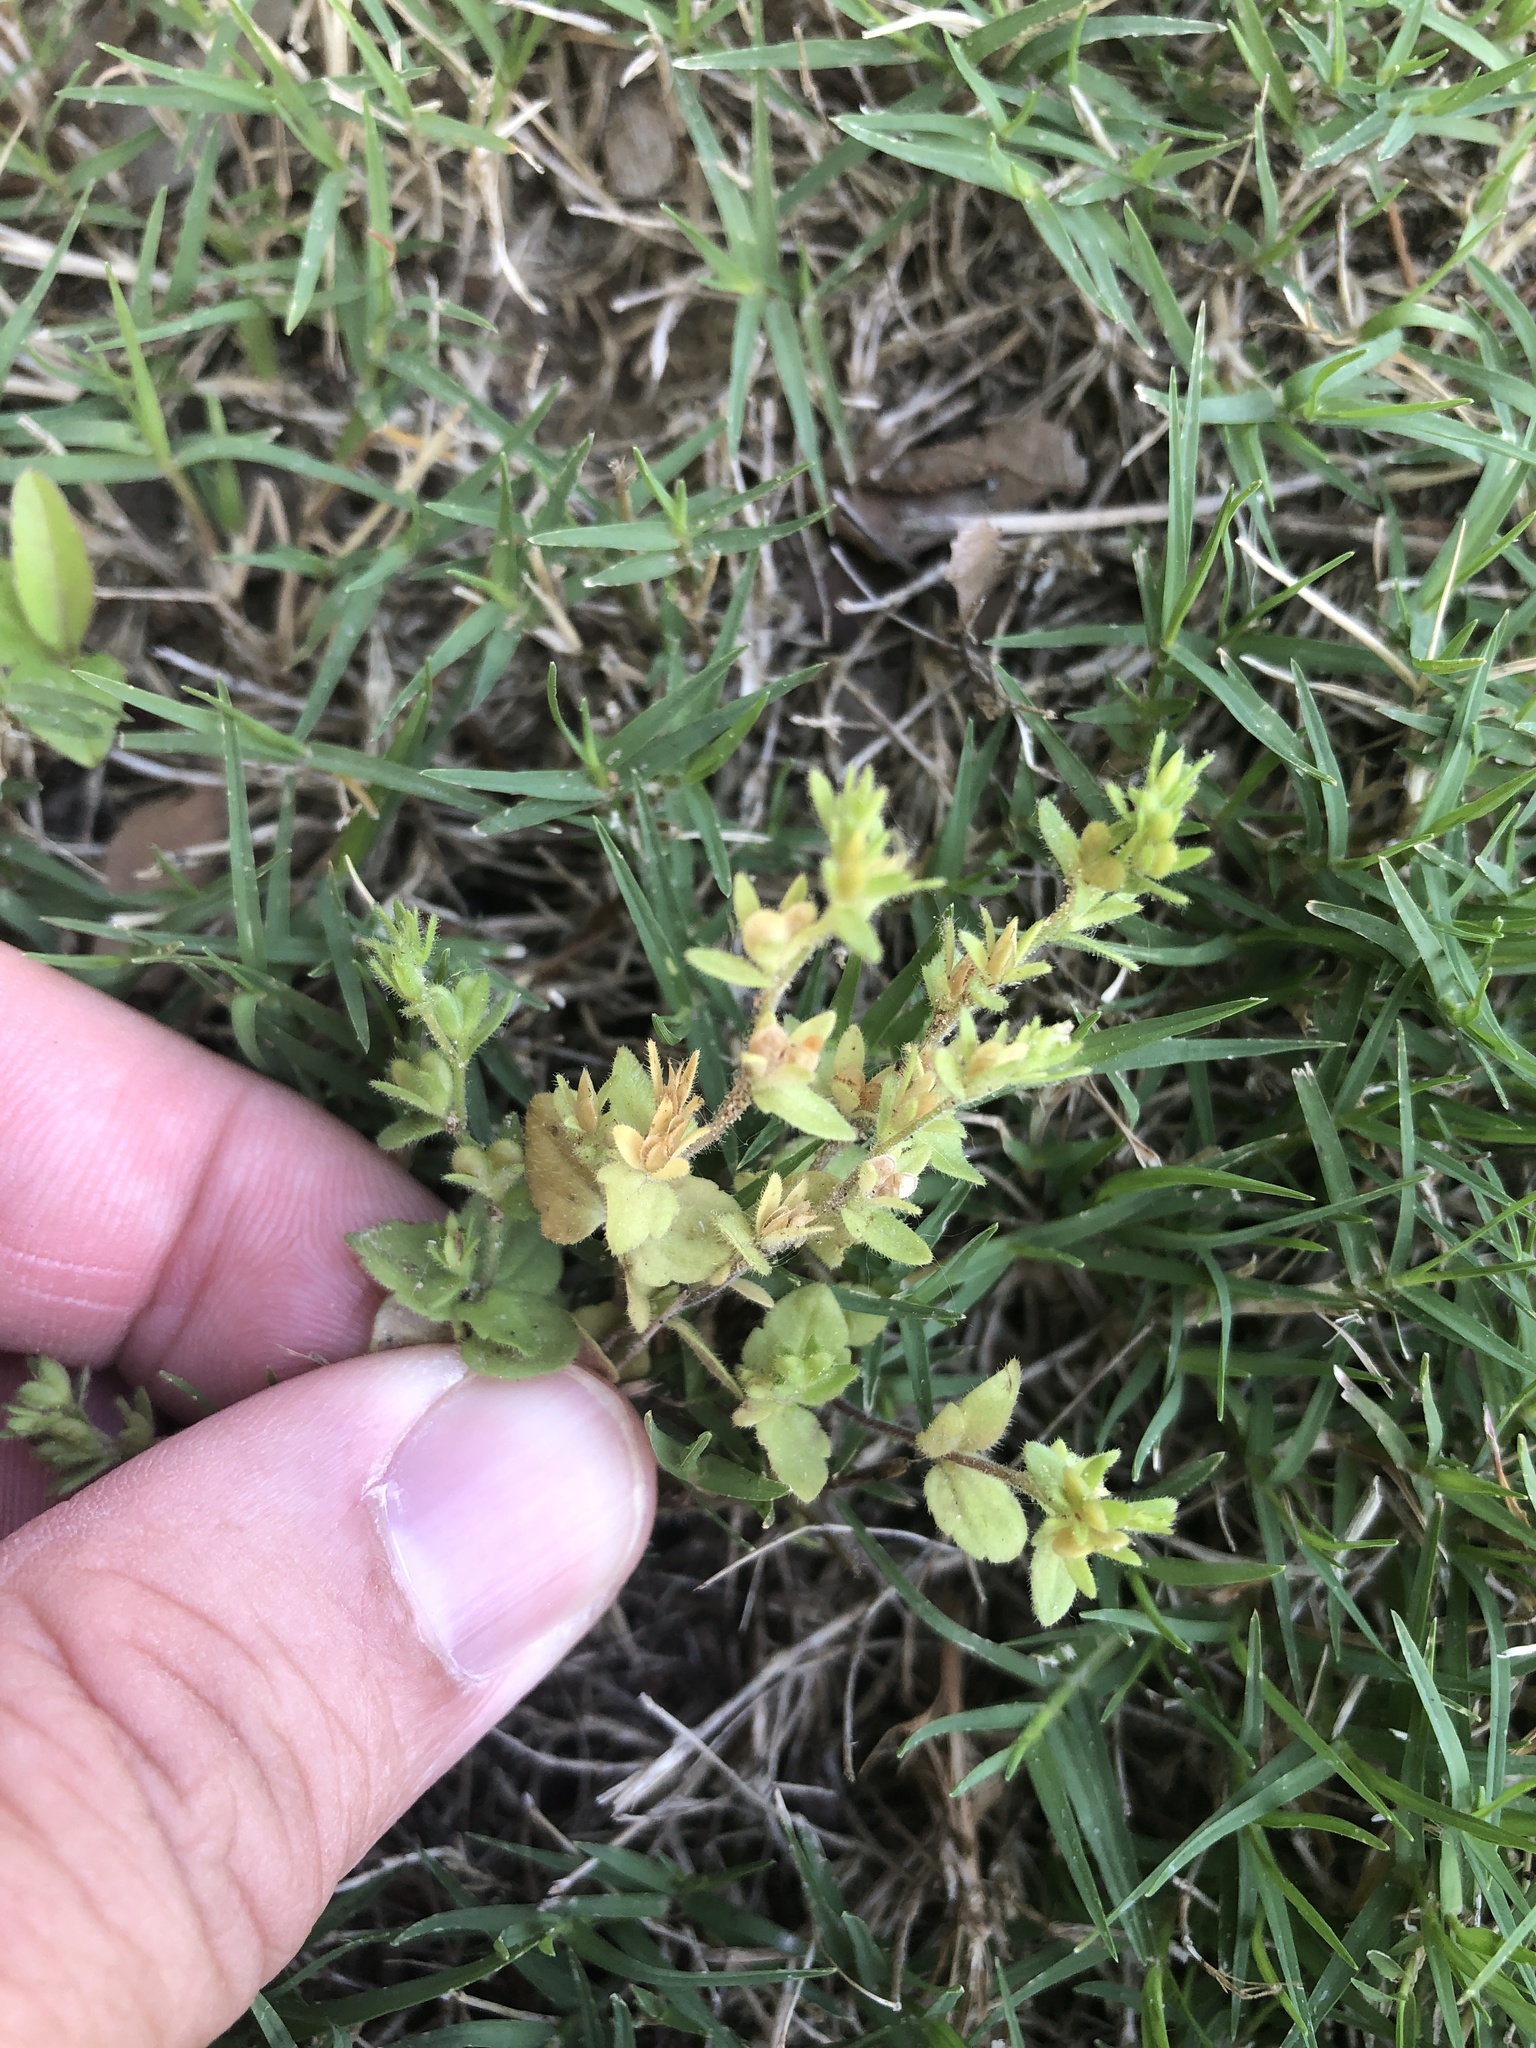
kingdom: Plantae
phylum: Tracheophyta
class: Magnoliopsida
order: Lamiales
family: Plantaginaceae
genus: Veronica
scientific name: Veronica arvensis
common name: Corn speedwell
